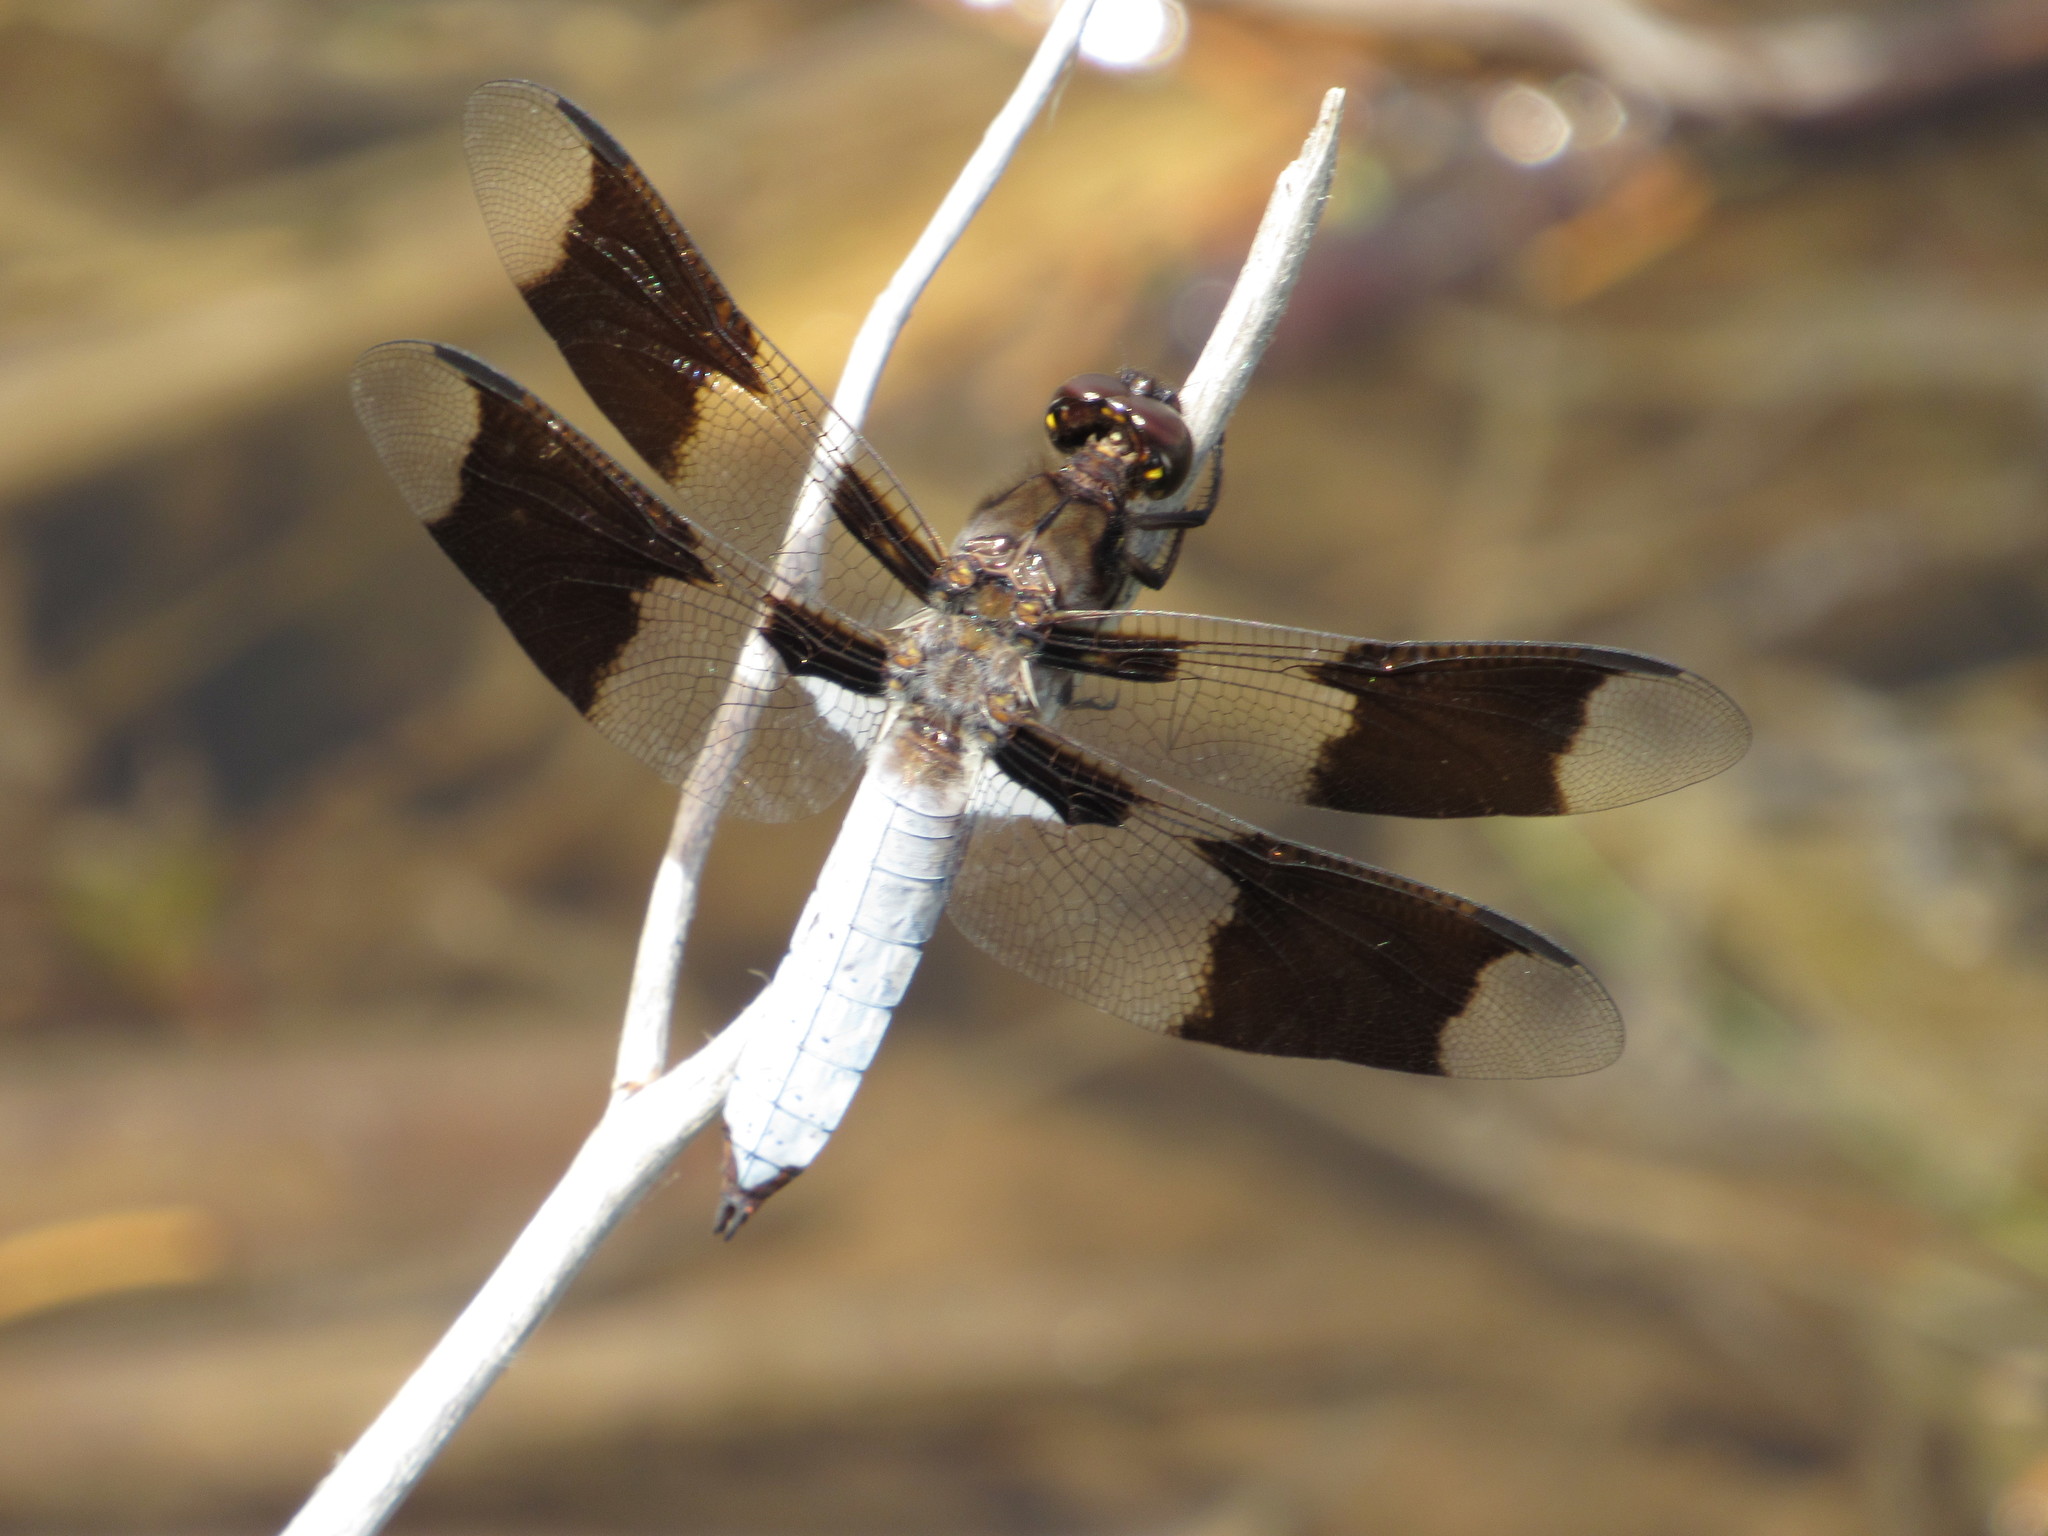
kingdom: Animalia
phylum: Arthropoda
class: Insecta
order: Odonata
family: Libellulidae
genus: Plathemis
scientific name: Plathemis lydia
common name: Common whitetail
